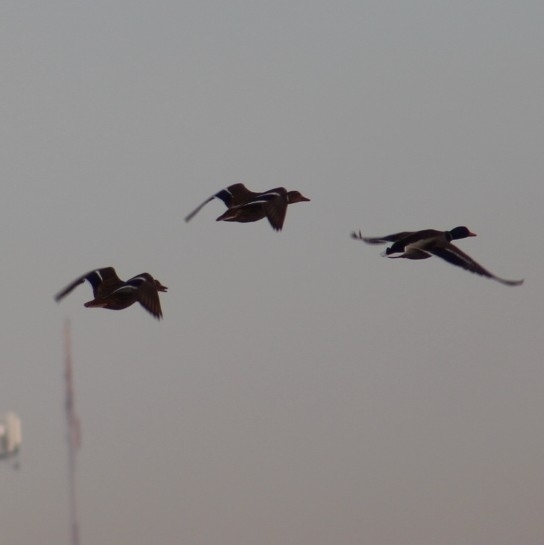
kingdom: Animalia
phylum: Chordata
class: Aves
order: Anseriformes
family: Anatidae
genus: Anas
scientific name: Anas platyrhynchos
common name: Mallard
